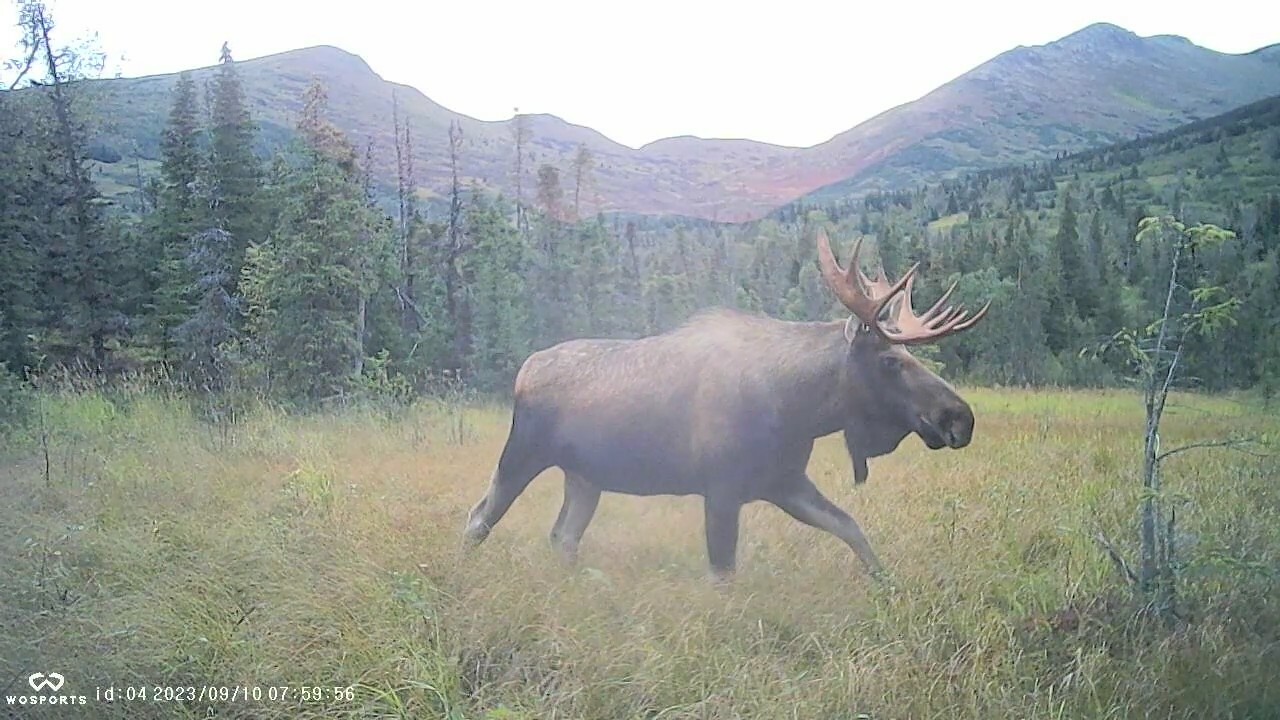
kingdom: Animalia
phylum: Chordata
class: Mammalia
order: Artiodactyla
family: Cervidae
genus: Alces
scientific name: Alces alces
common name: Moose
